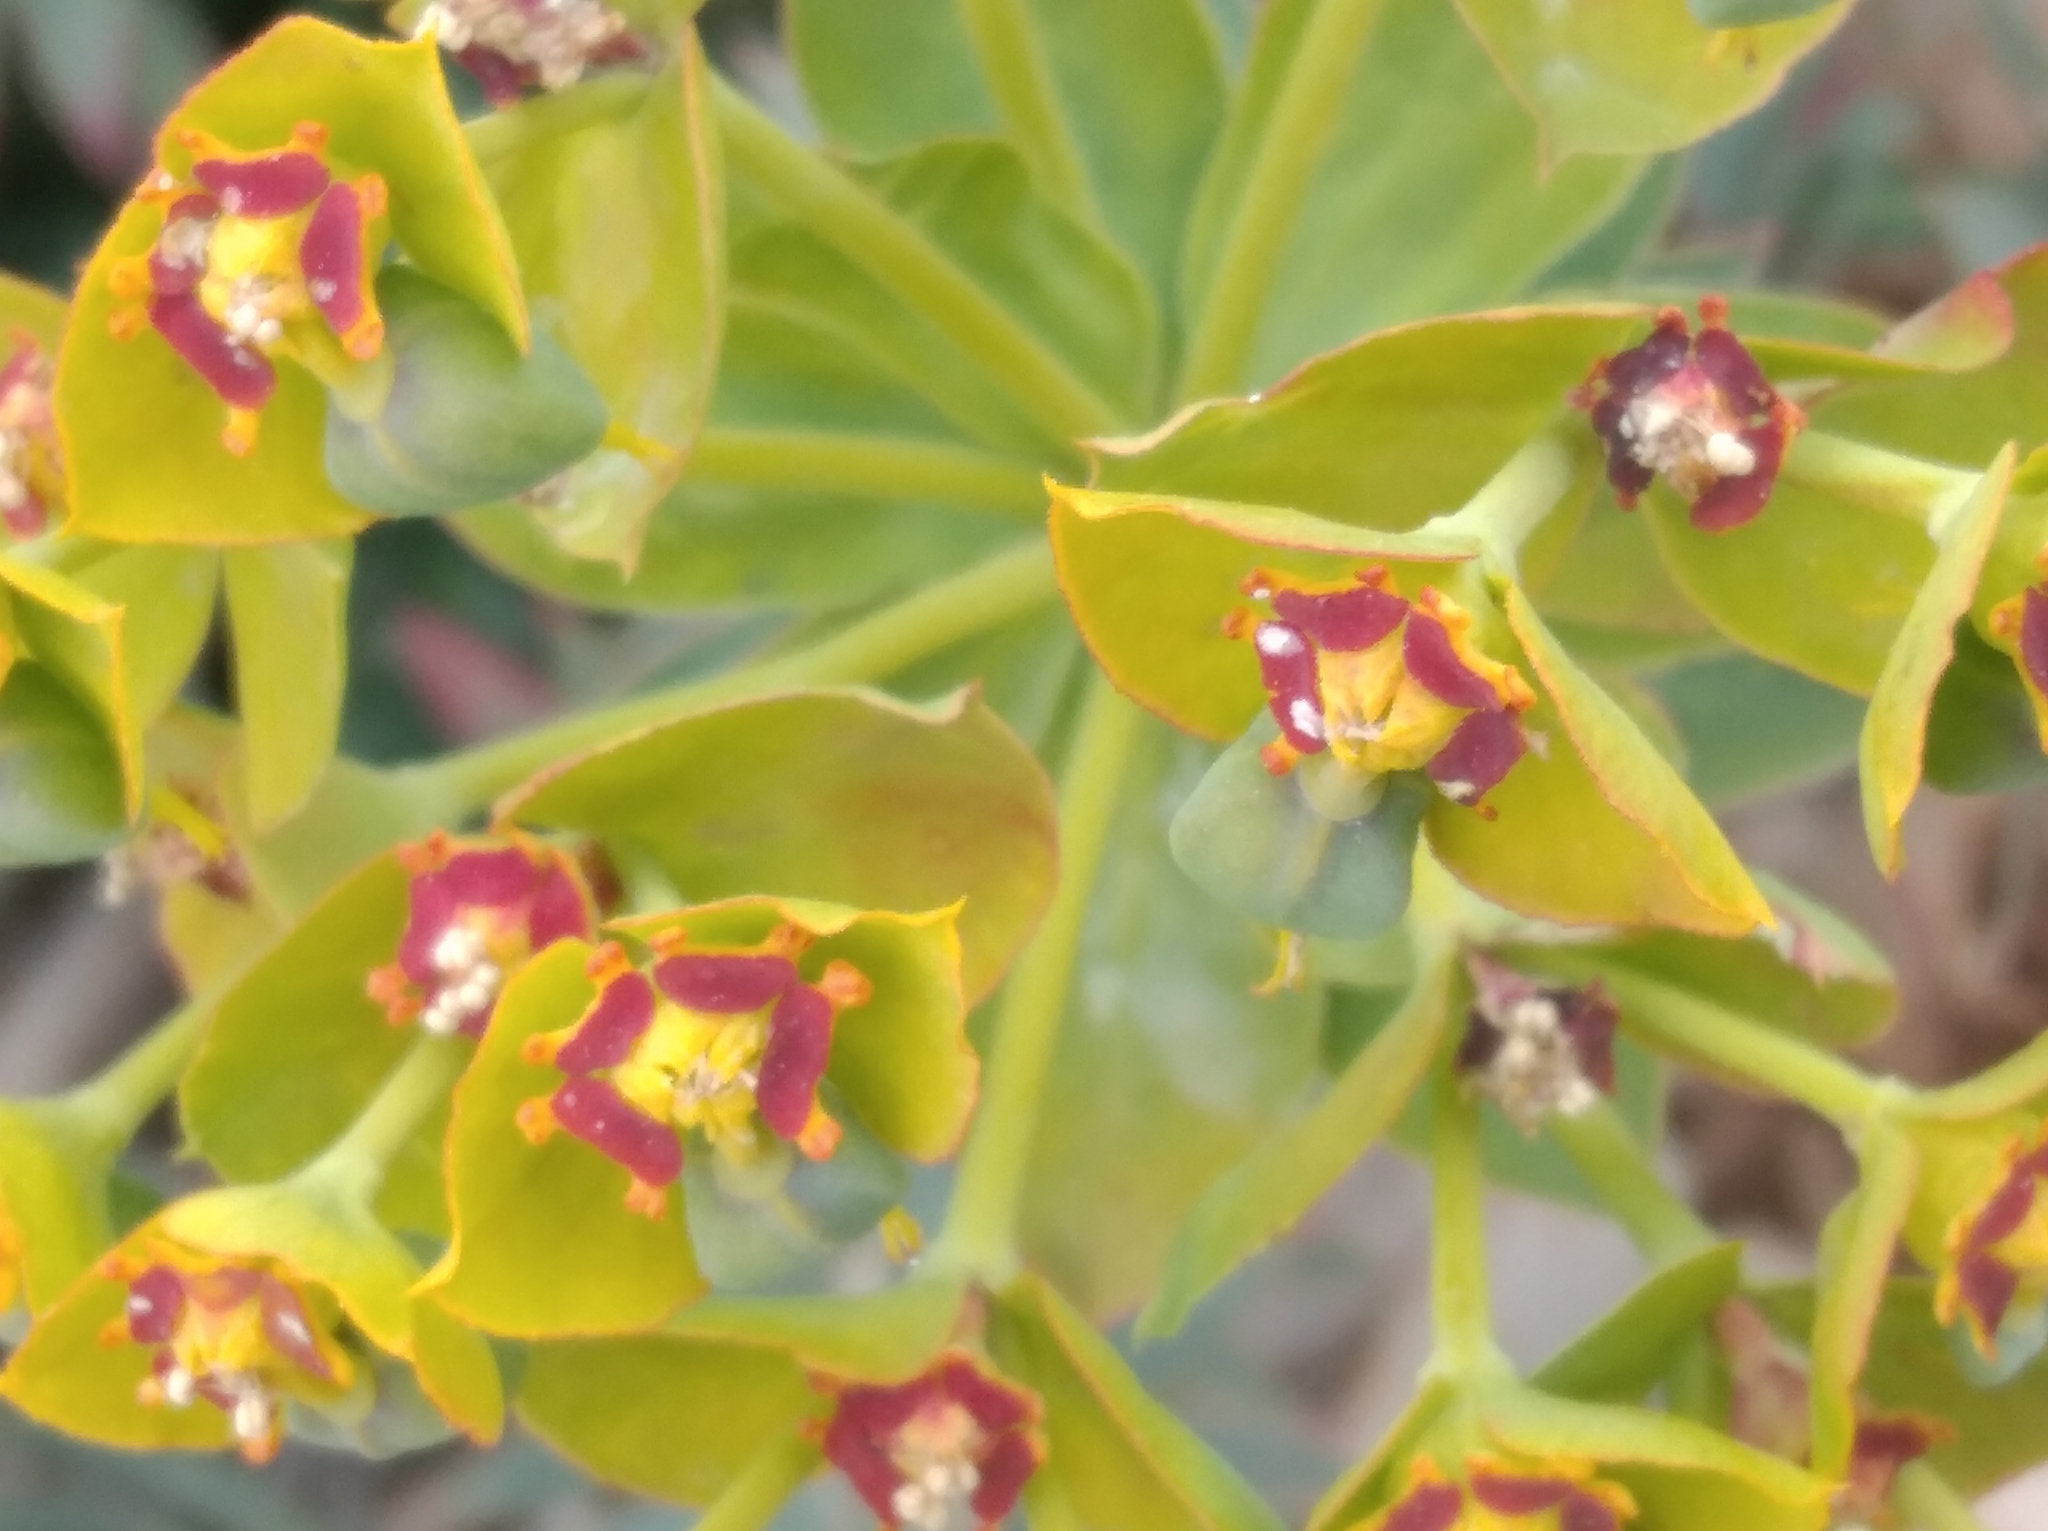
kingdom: Plantae
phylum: Tracheophyta
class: Magnoliopsida
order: Malpighiales
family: Euphorbiaceae
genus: Euphorbia
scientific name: Euphorbia rigida
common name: Upright myrtle spurge
